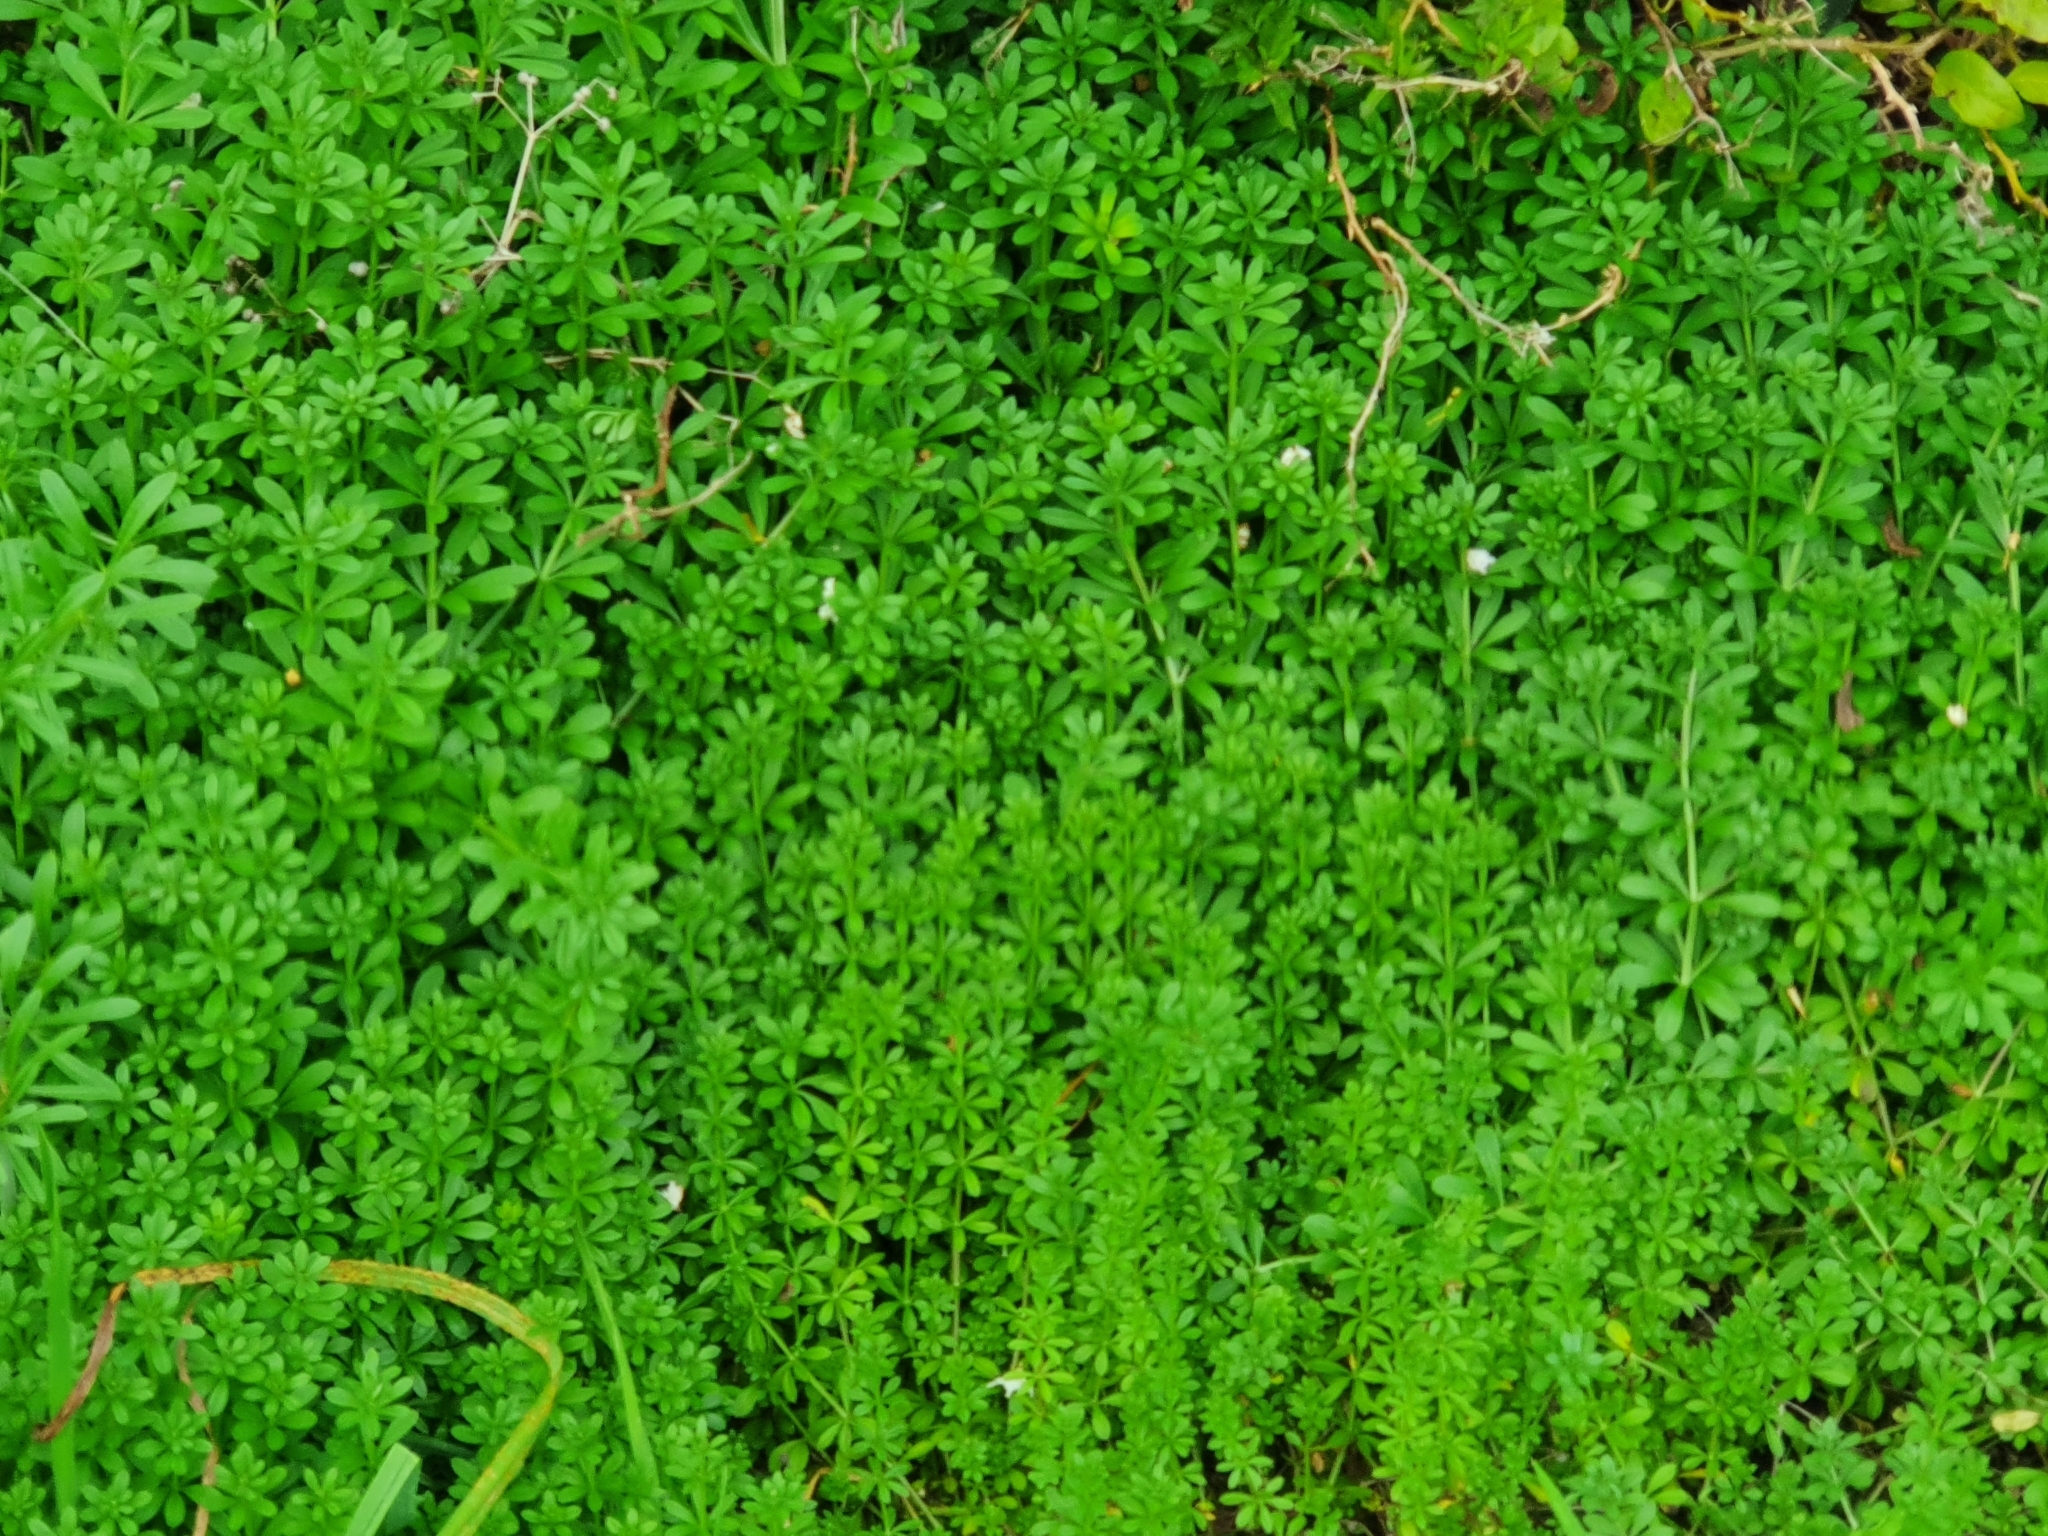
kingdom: Plantae
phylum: Tracheophyta
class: Magnoliopsida
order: Gentianales
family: Rubiaceae
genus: Galium
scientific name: Galium aparine
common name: Cleavers
